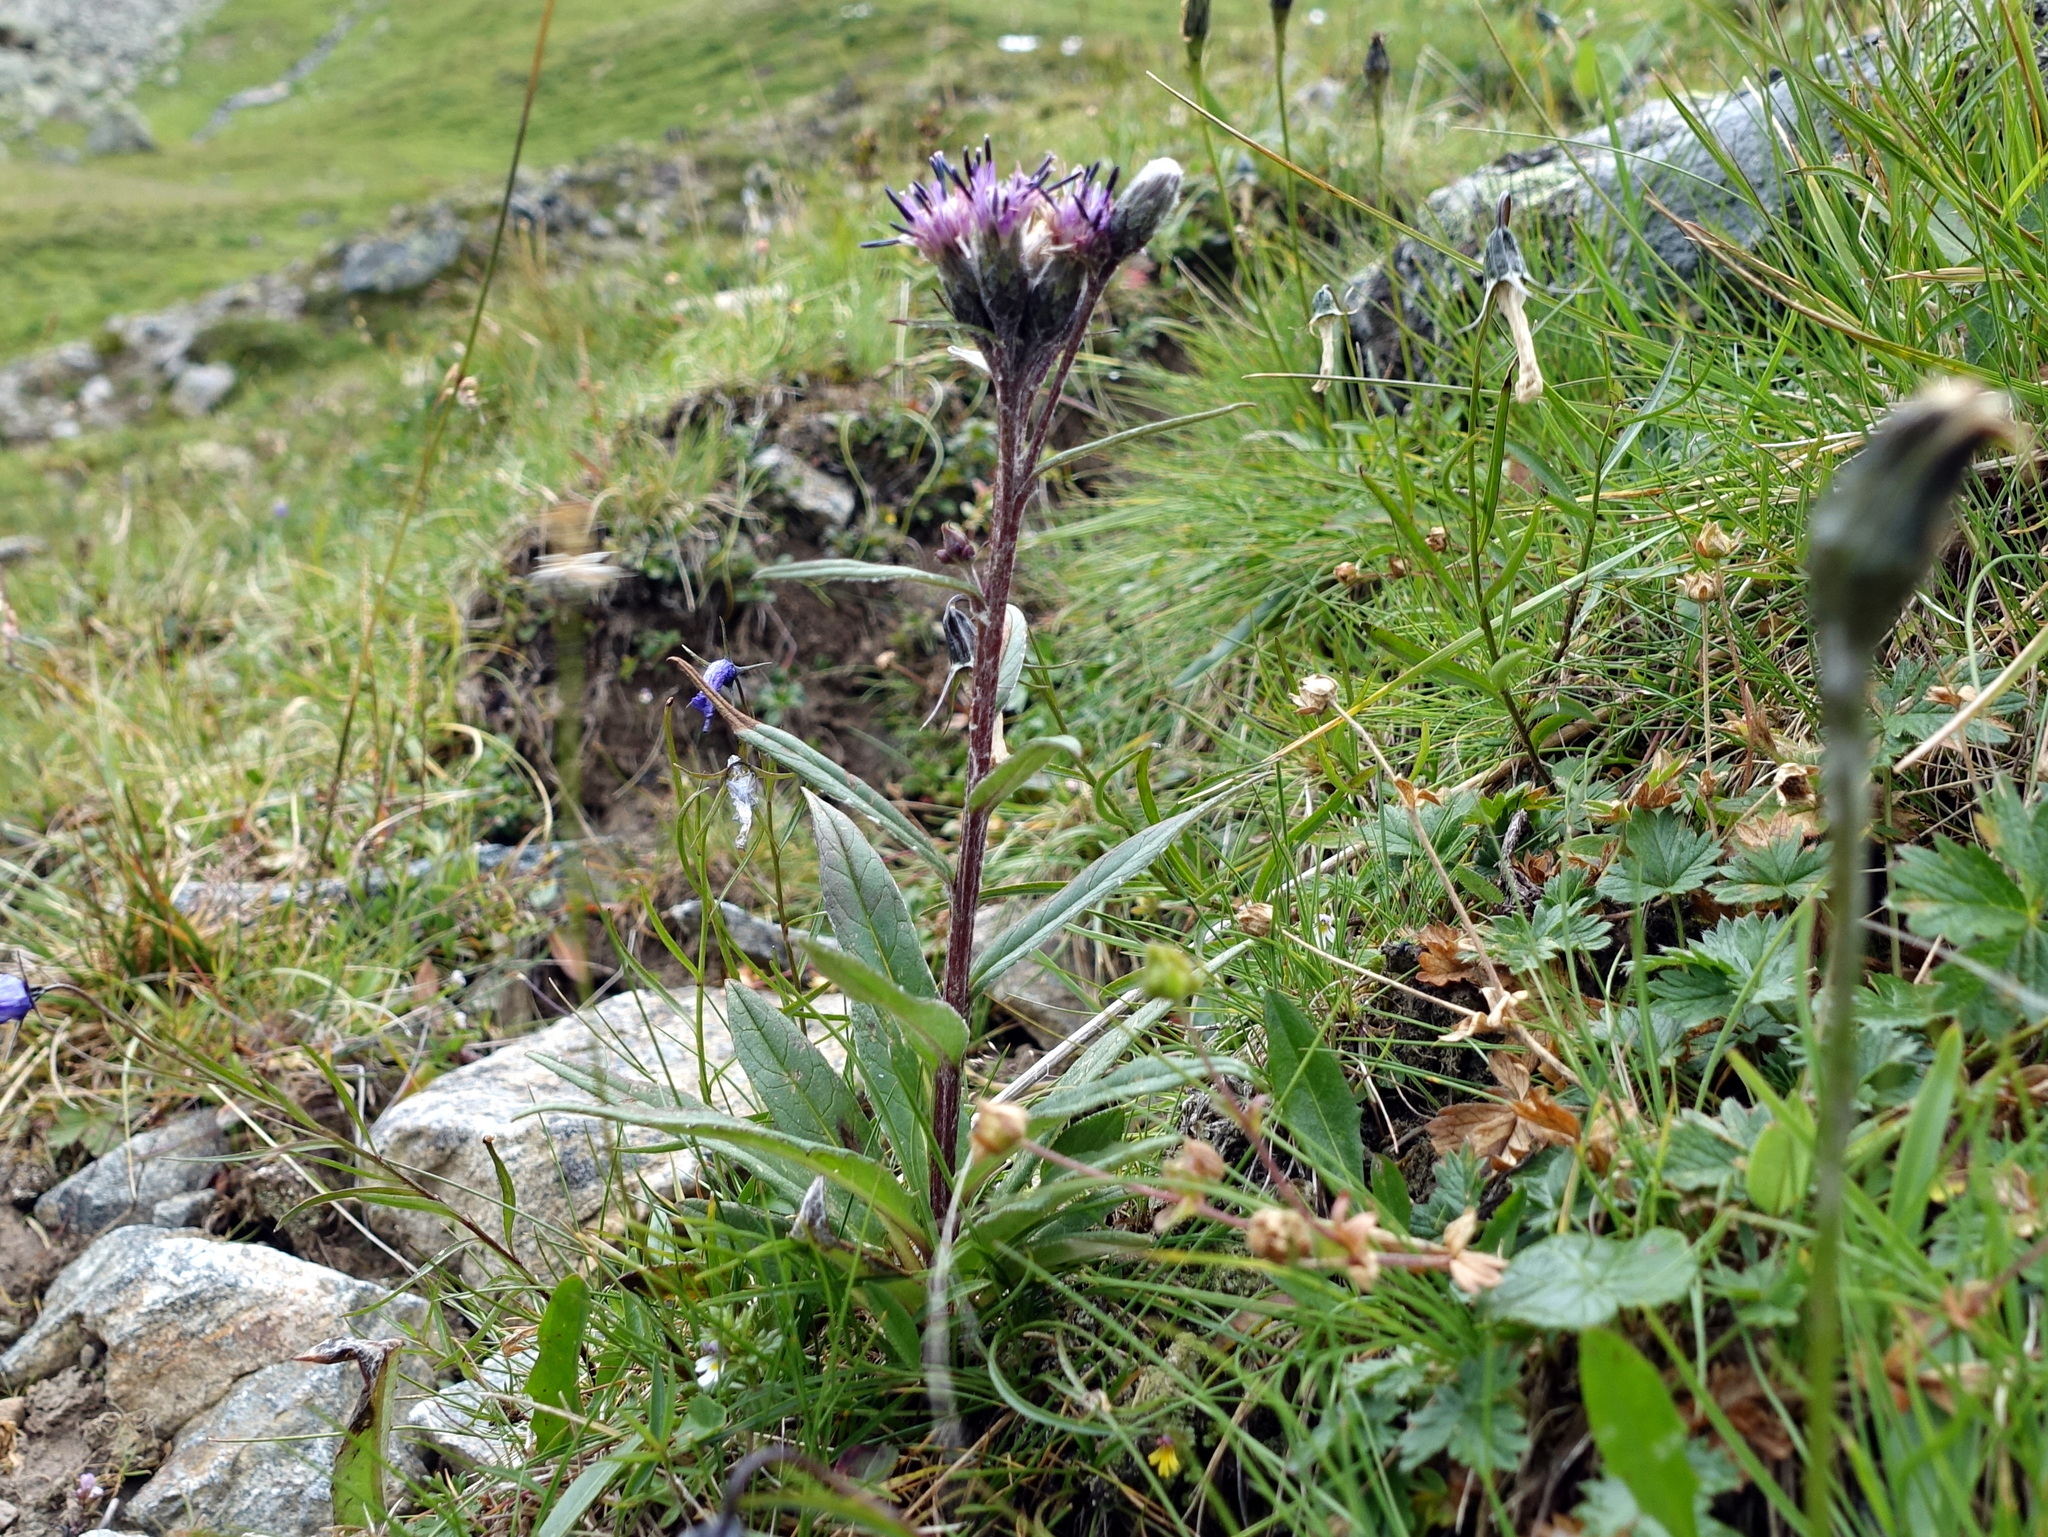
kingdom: Plantae
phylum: Tracheophyta
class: Magnoliopsida
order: Asterales
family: Asteraceae
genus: Saussurea
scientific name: Saussurea alpina
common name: Alpine saw-wort
